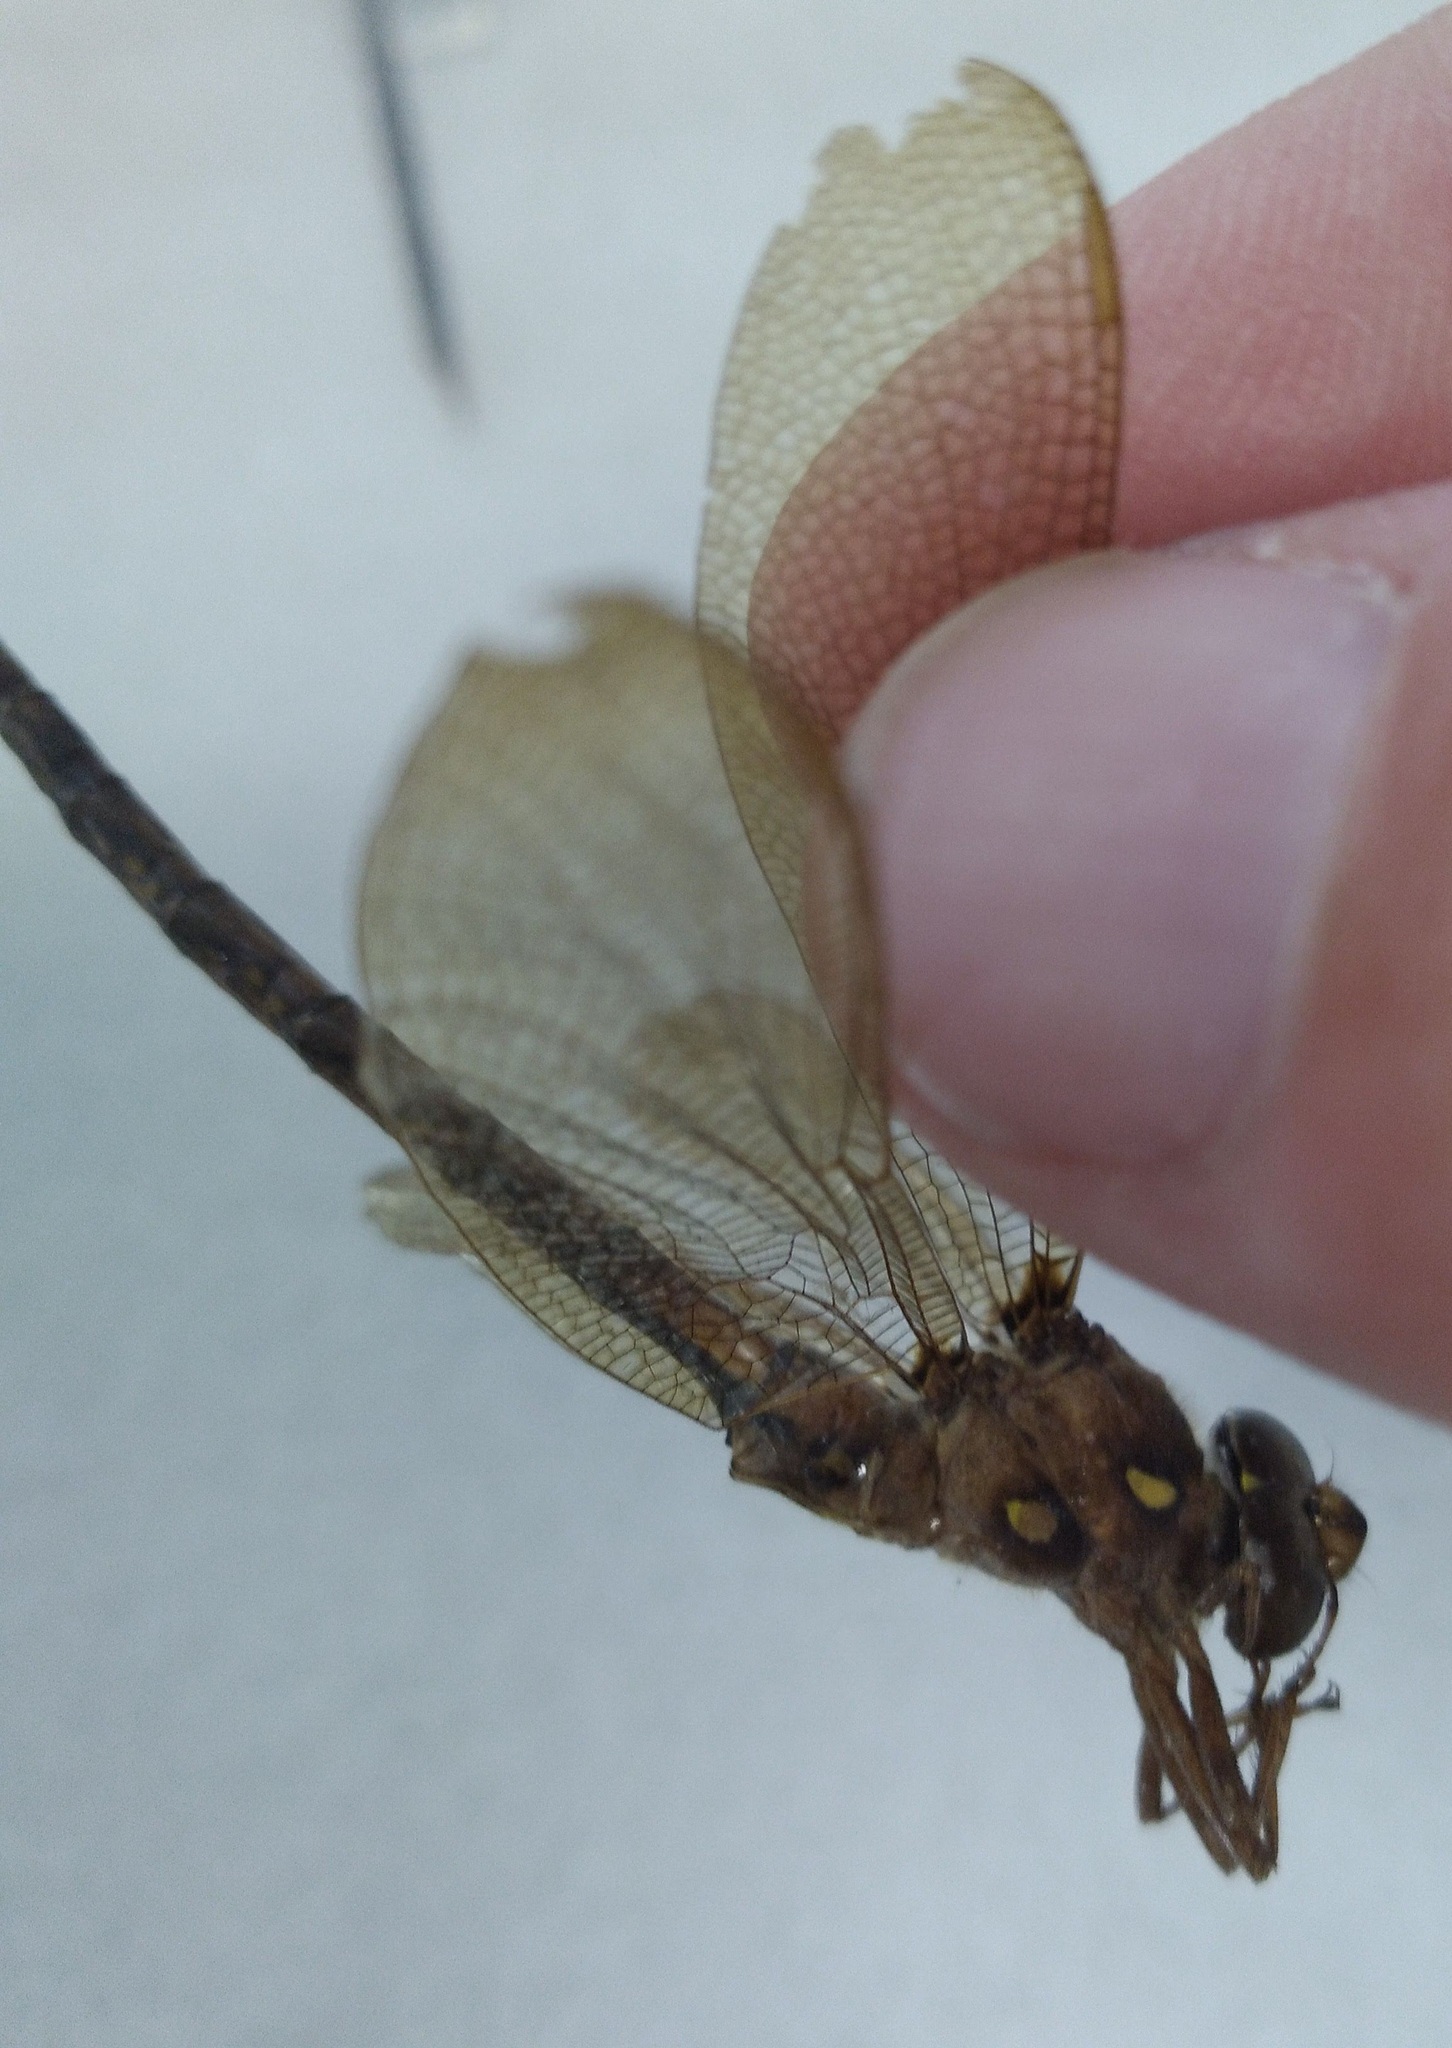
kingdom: Animalia
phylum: Arthropoda
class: Insecta
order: Odonata
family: Aeshnidae
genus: Boyeria
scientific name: Boyeria vinosa
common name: Fawn darner
